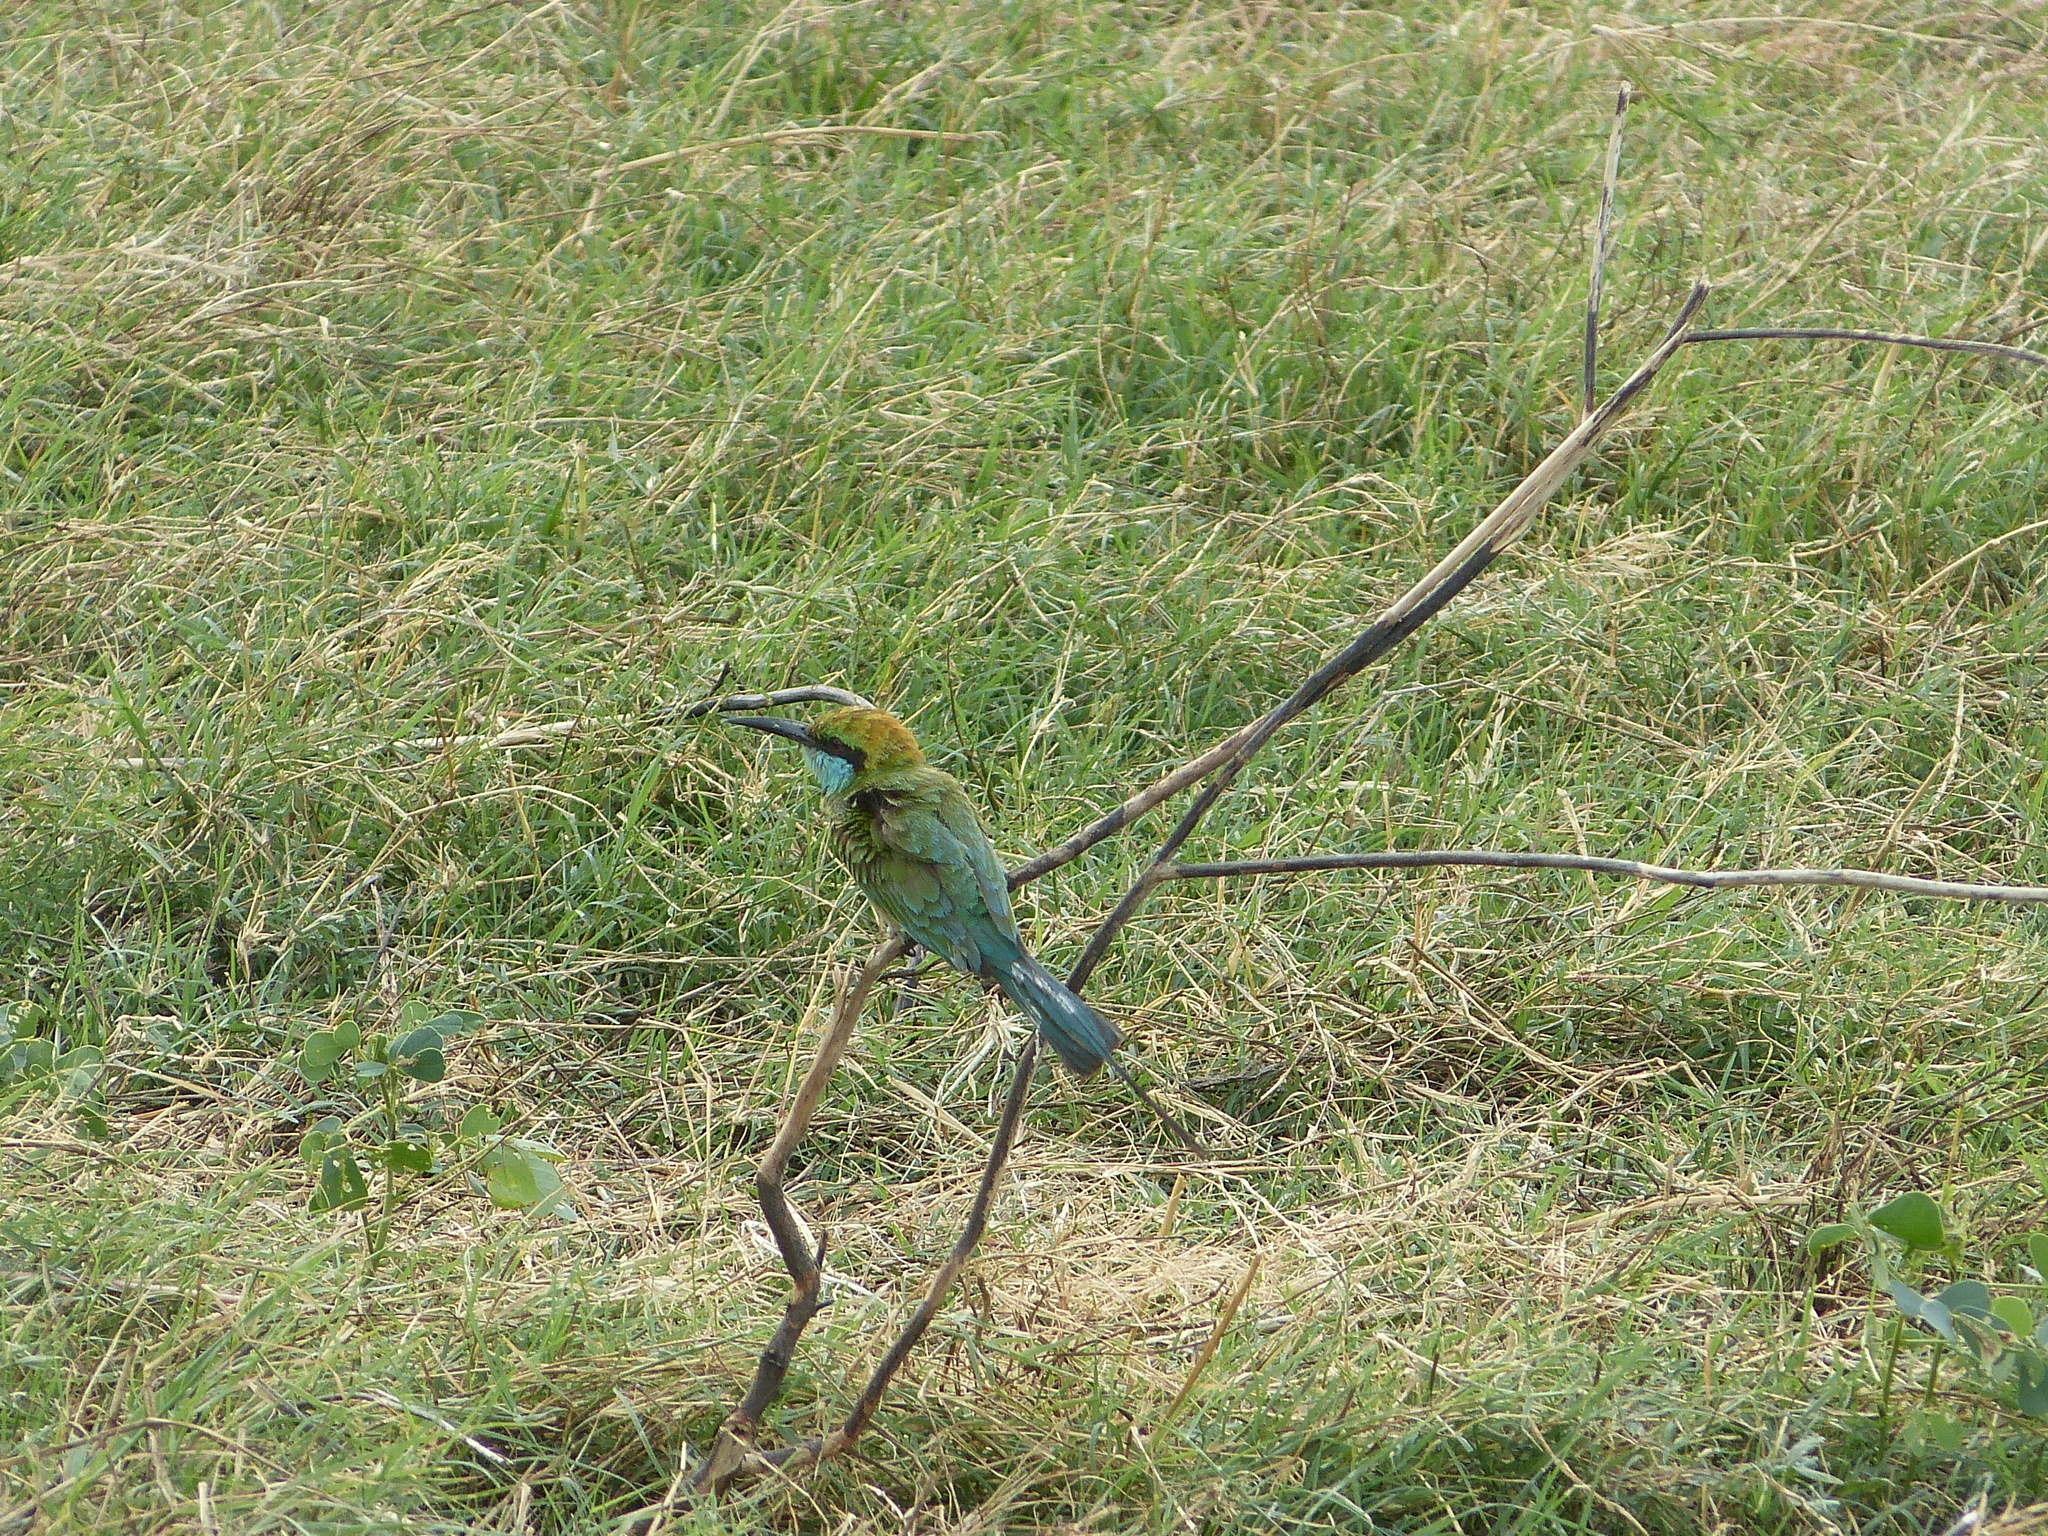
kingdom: Animalia
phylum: Chordata
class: Aves
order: Coraciiformes
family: Meropidae
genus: Merops
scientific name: Merops orientalis
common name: Green bee-eater
